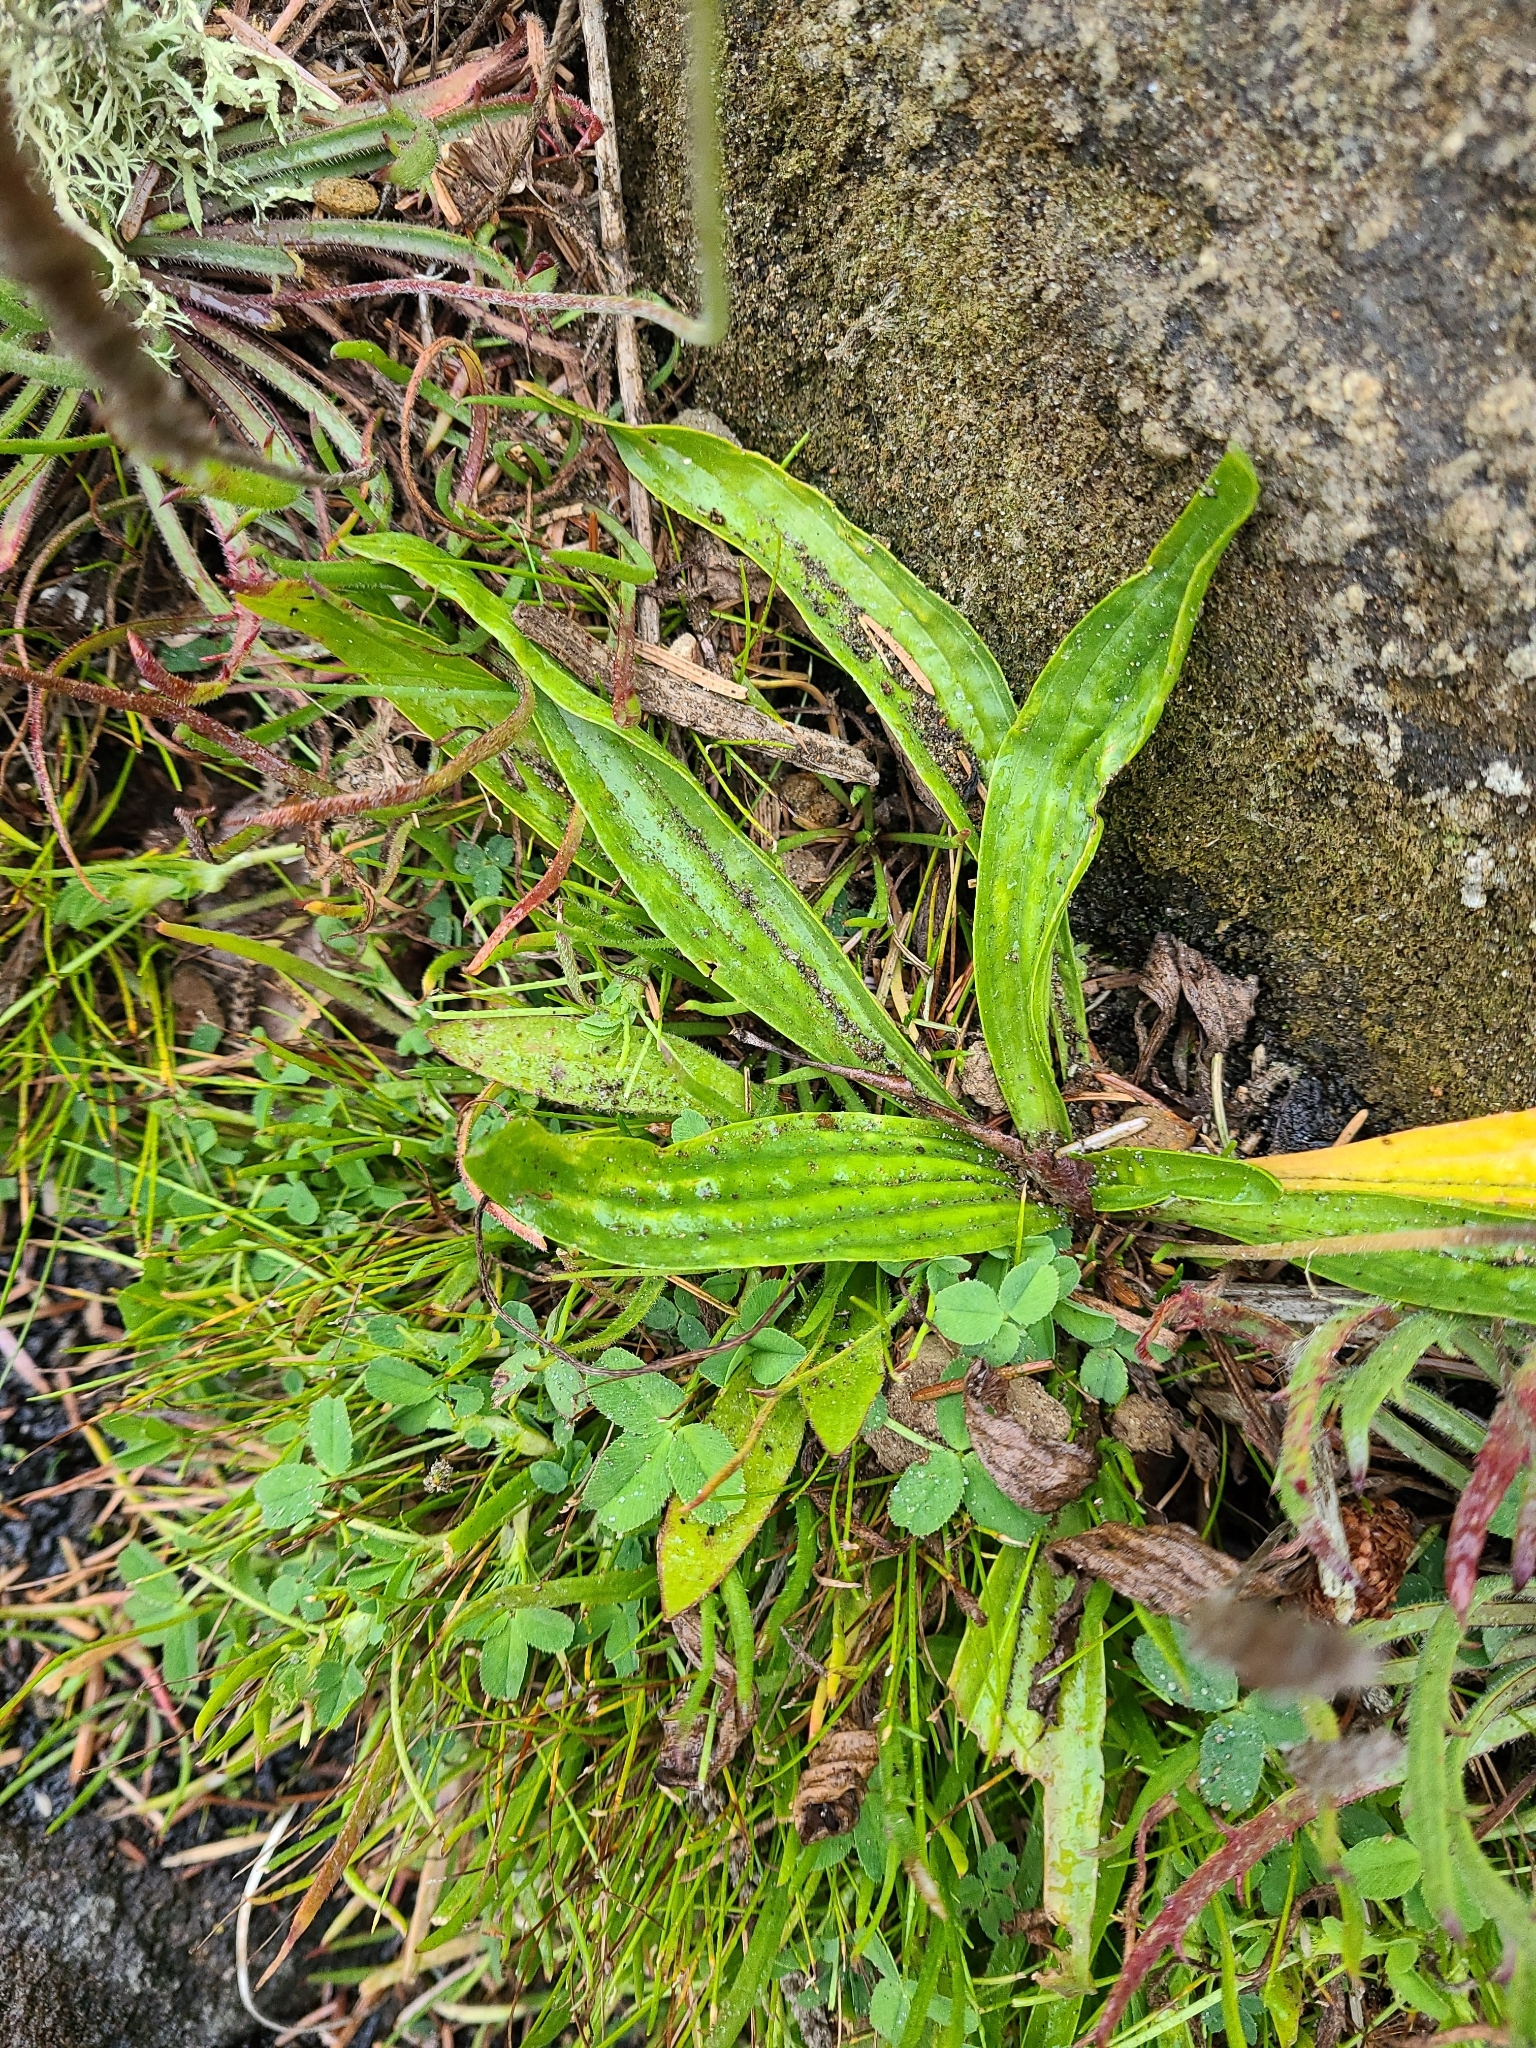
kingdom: Plantae
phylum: Tracheophyta
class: Magnoliopsida
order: Lamiales
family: Plantaginaceae
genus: Plantago
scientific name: Plantago lanceolata
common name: Ribwort plantain
